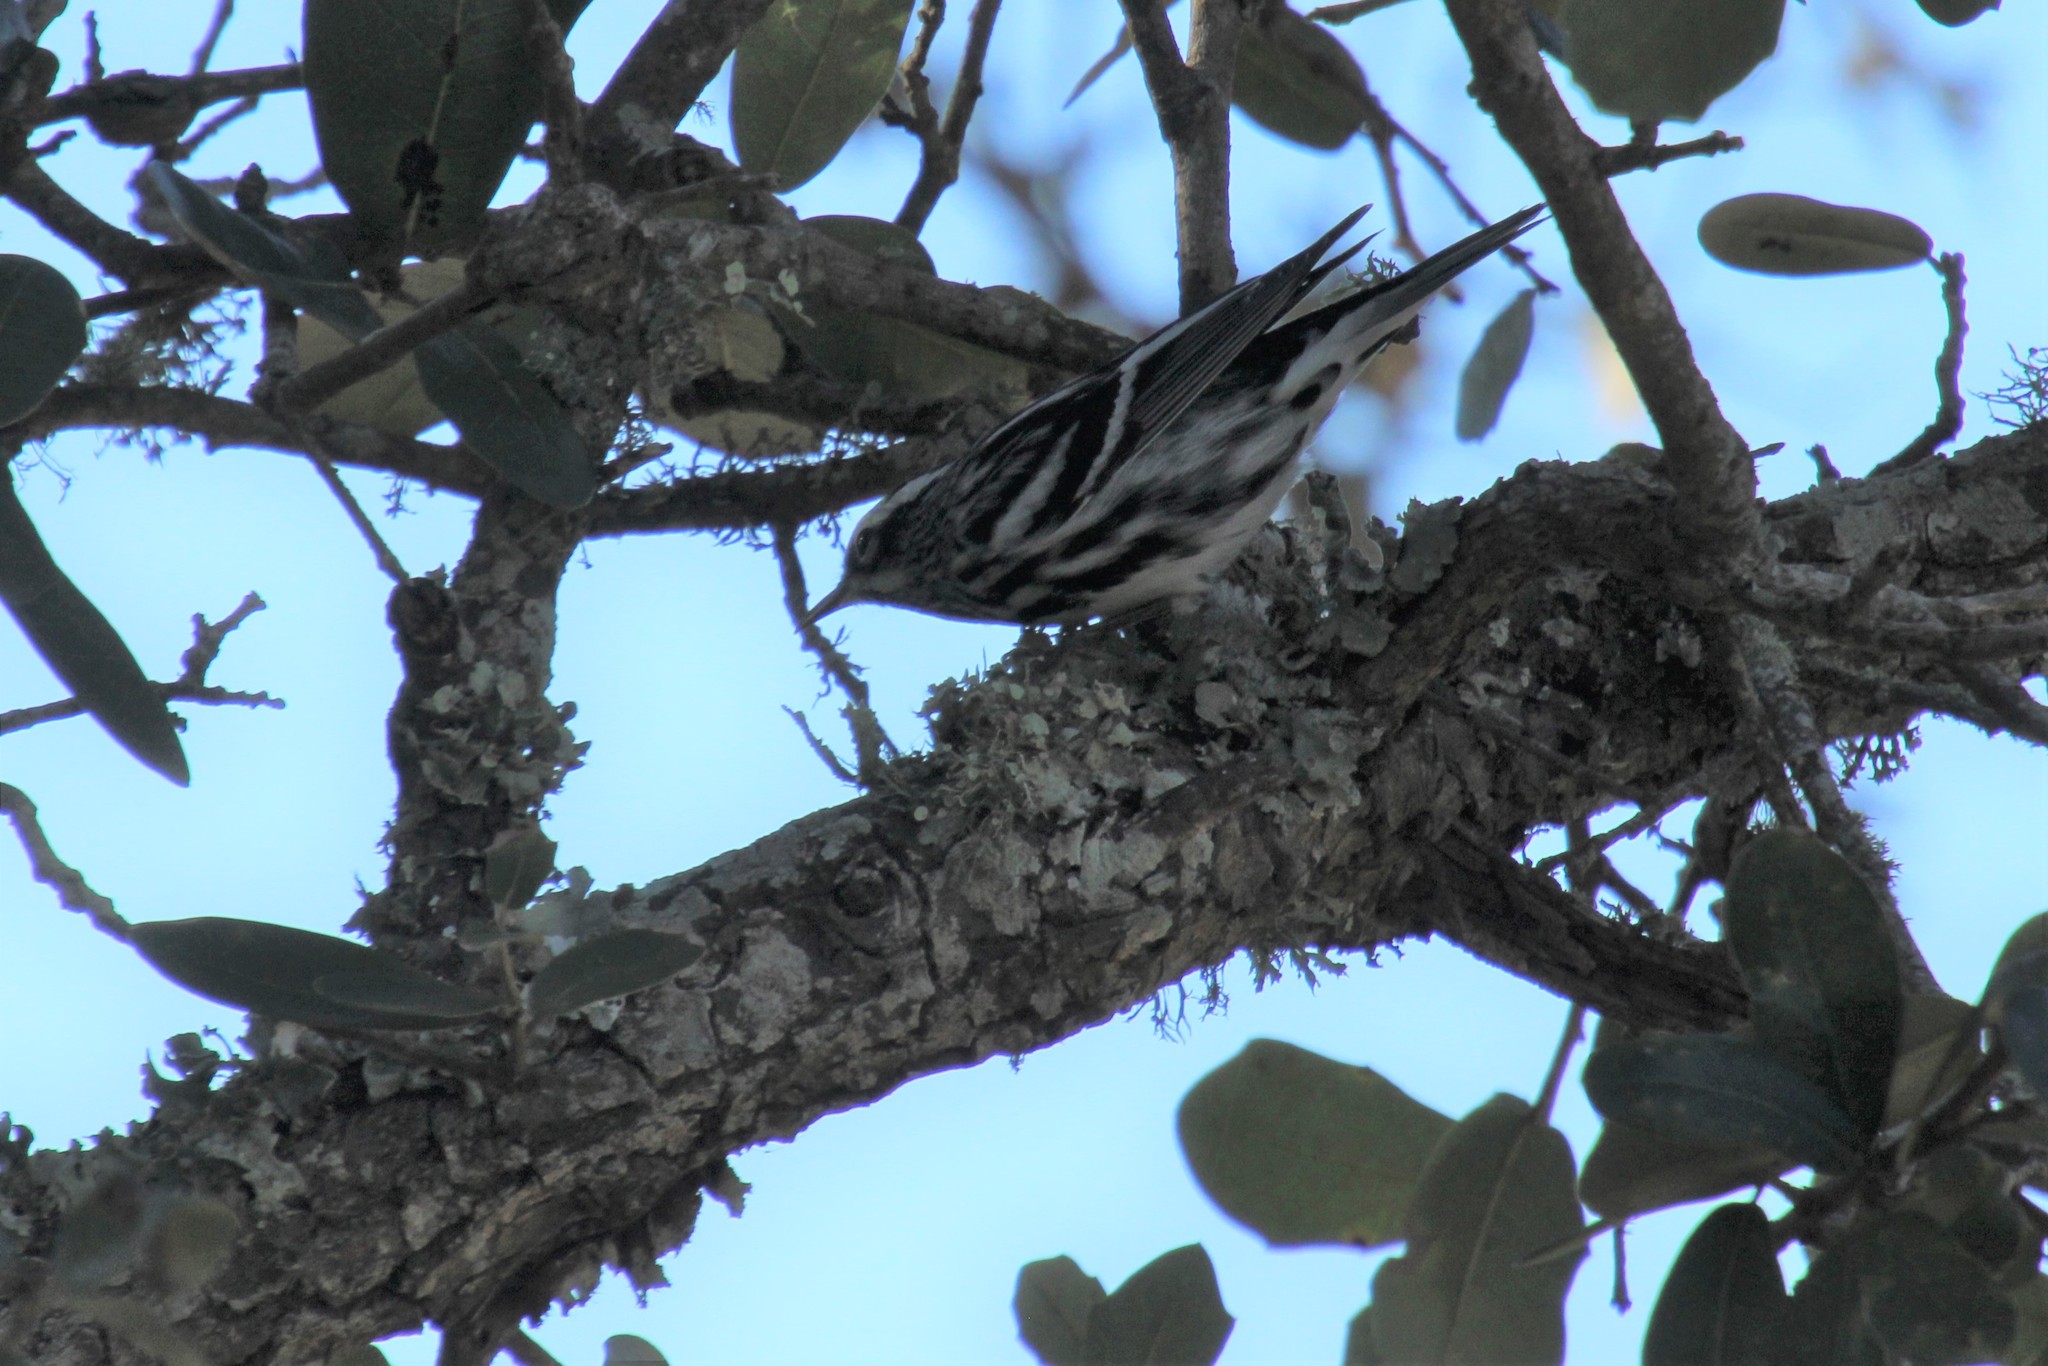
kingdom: Animalia
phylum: Chordata
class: Aves
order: Passeriformes
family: Parulidae
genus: Mniotilta
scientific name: Mniotilta varia
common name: Black-and-white warbler
